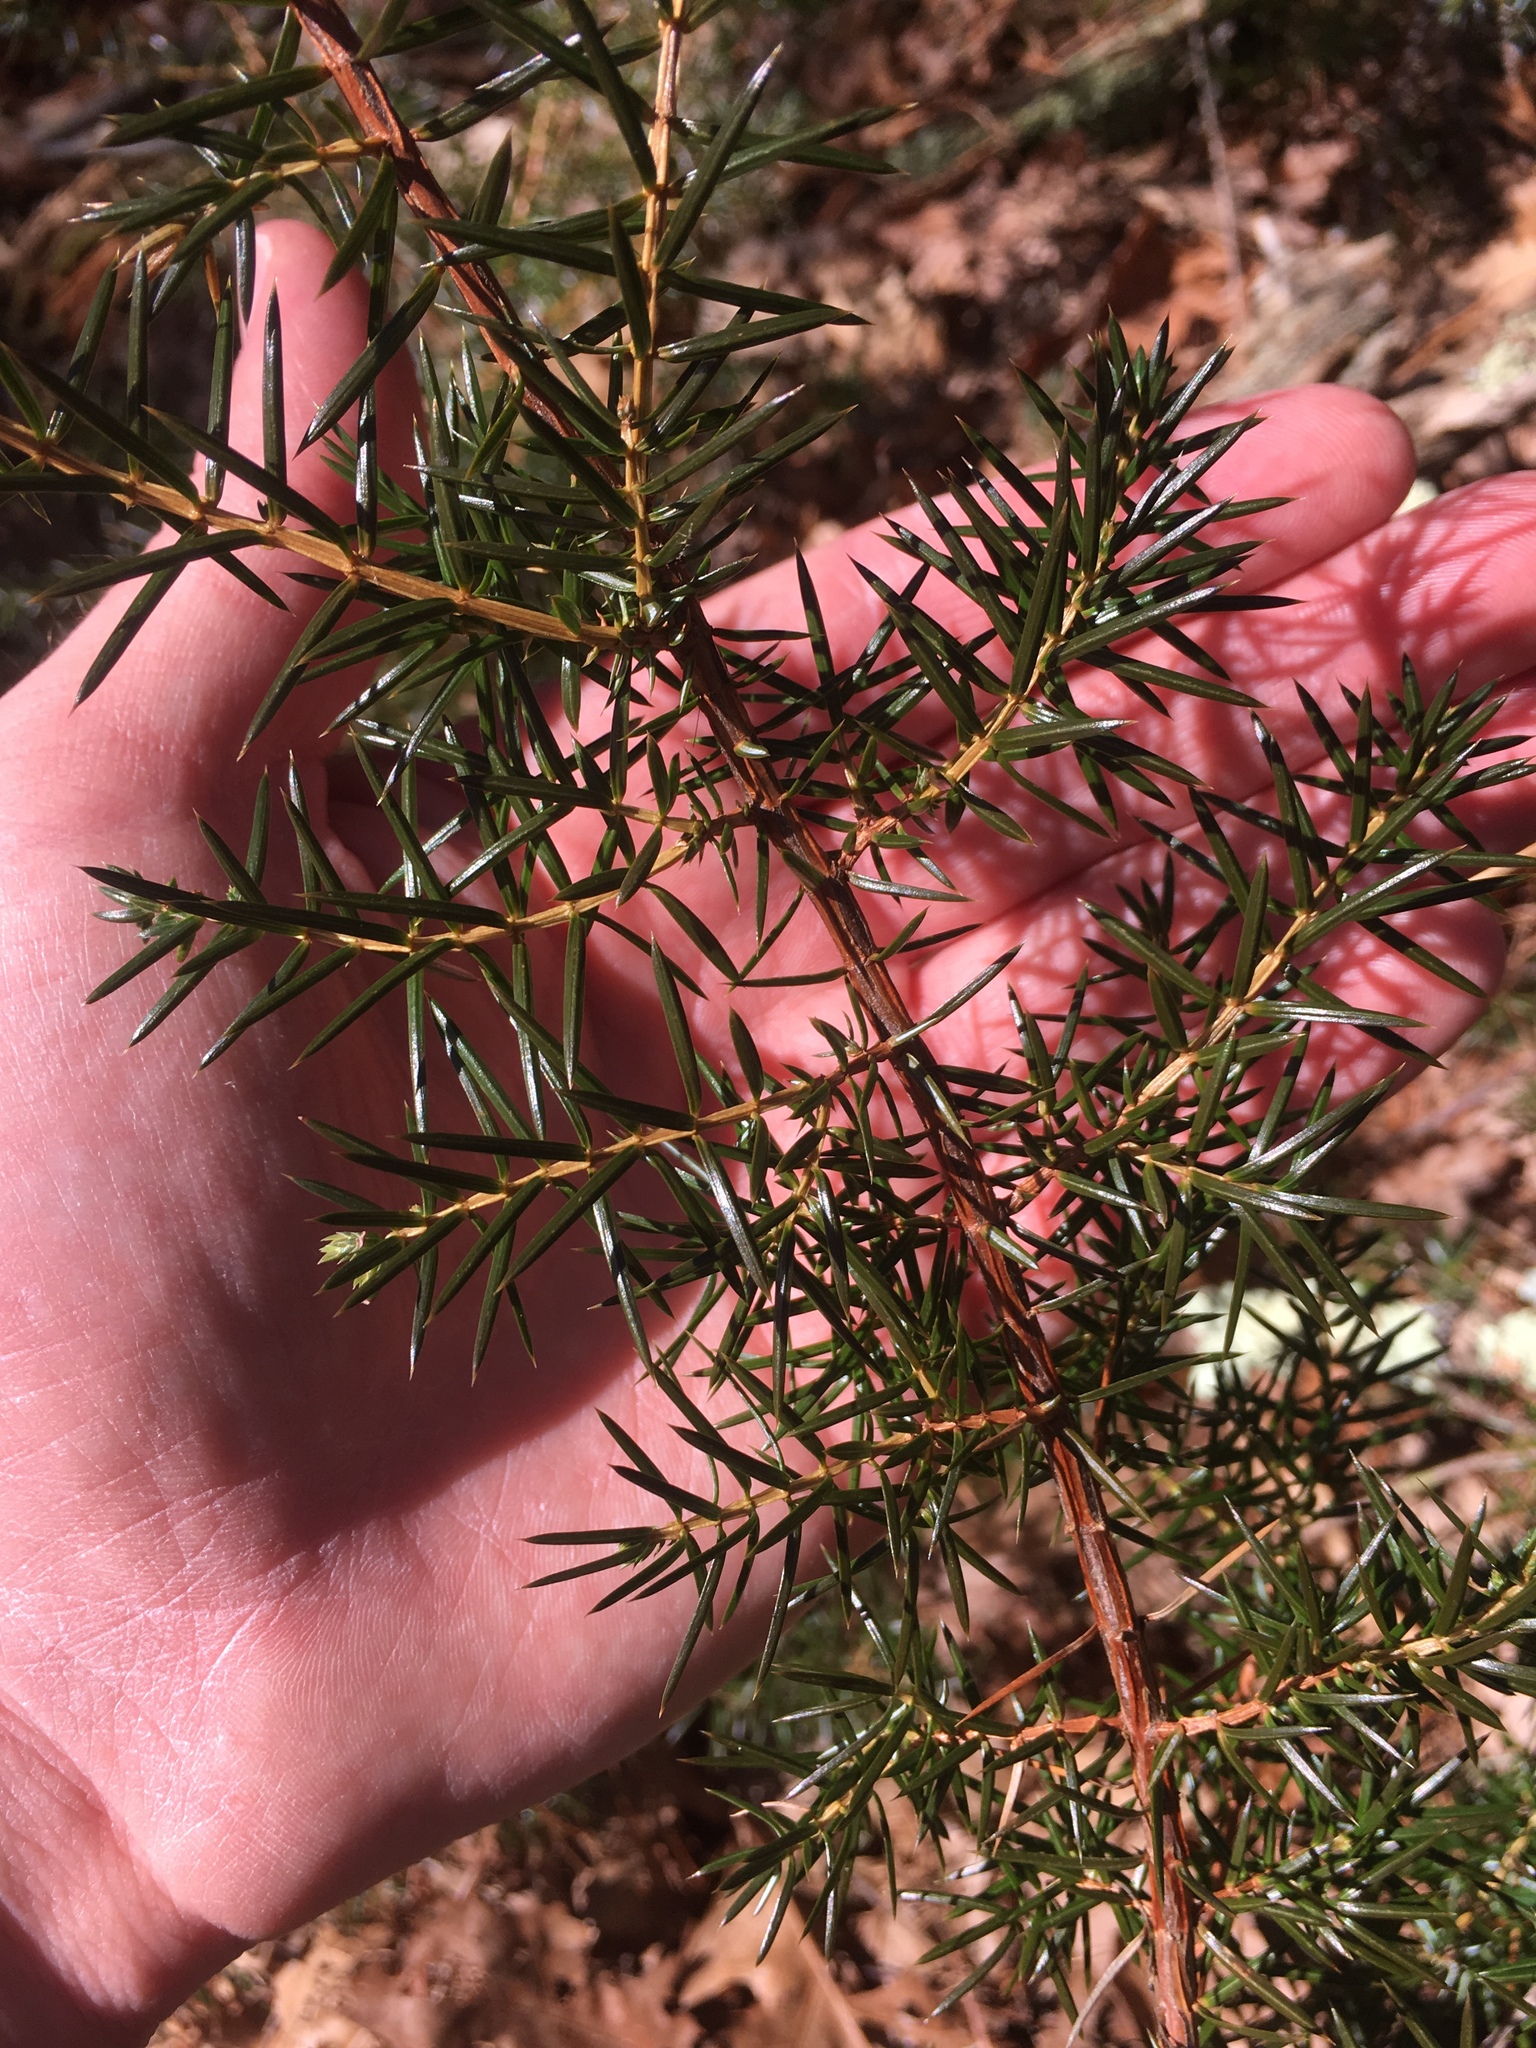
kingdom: Plantae
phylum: Tracheophyta
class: Pinopsida
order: Pinales
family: Cupressaceae
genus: Juniperus
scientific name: Juniperus communis
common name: Common juniper
